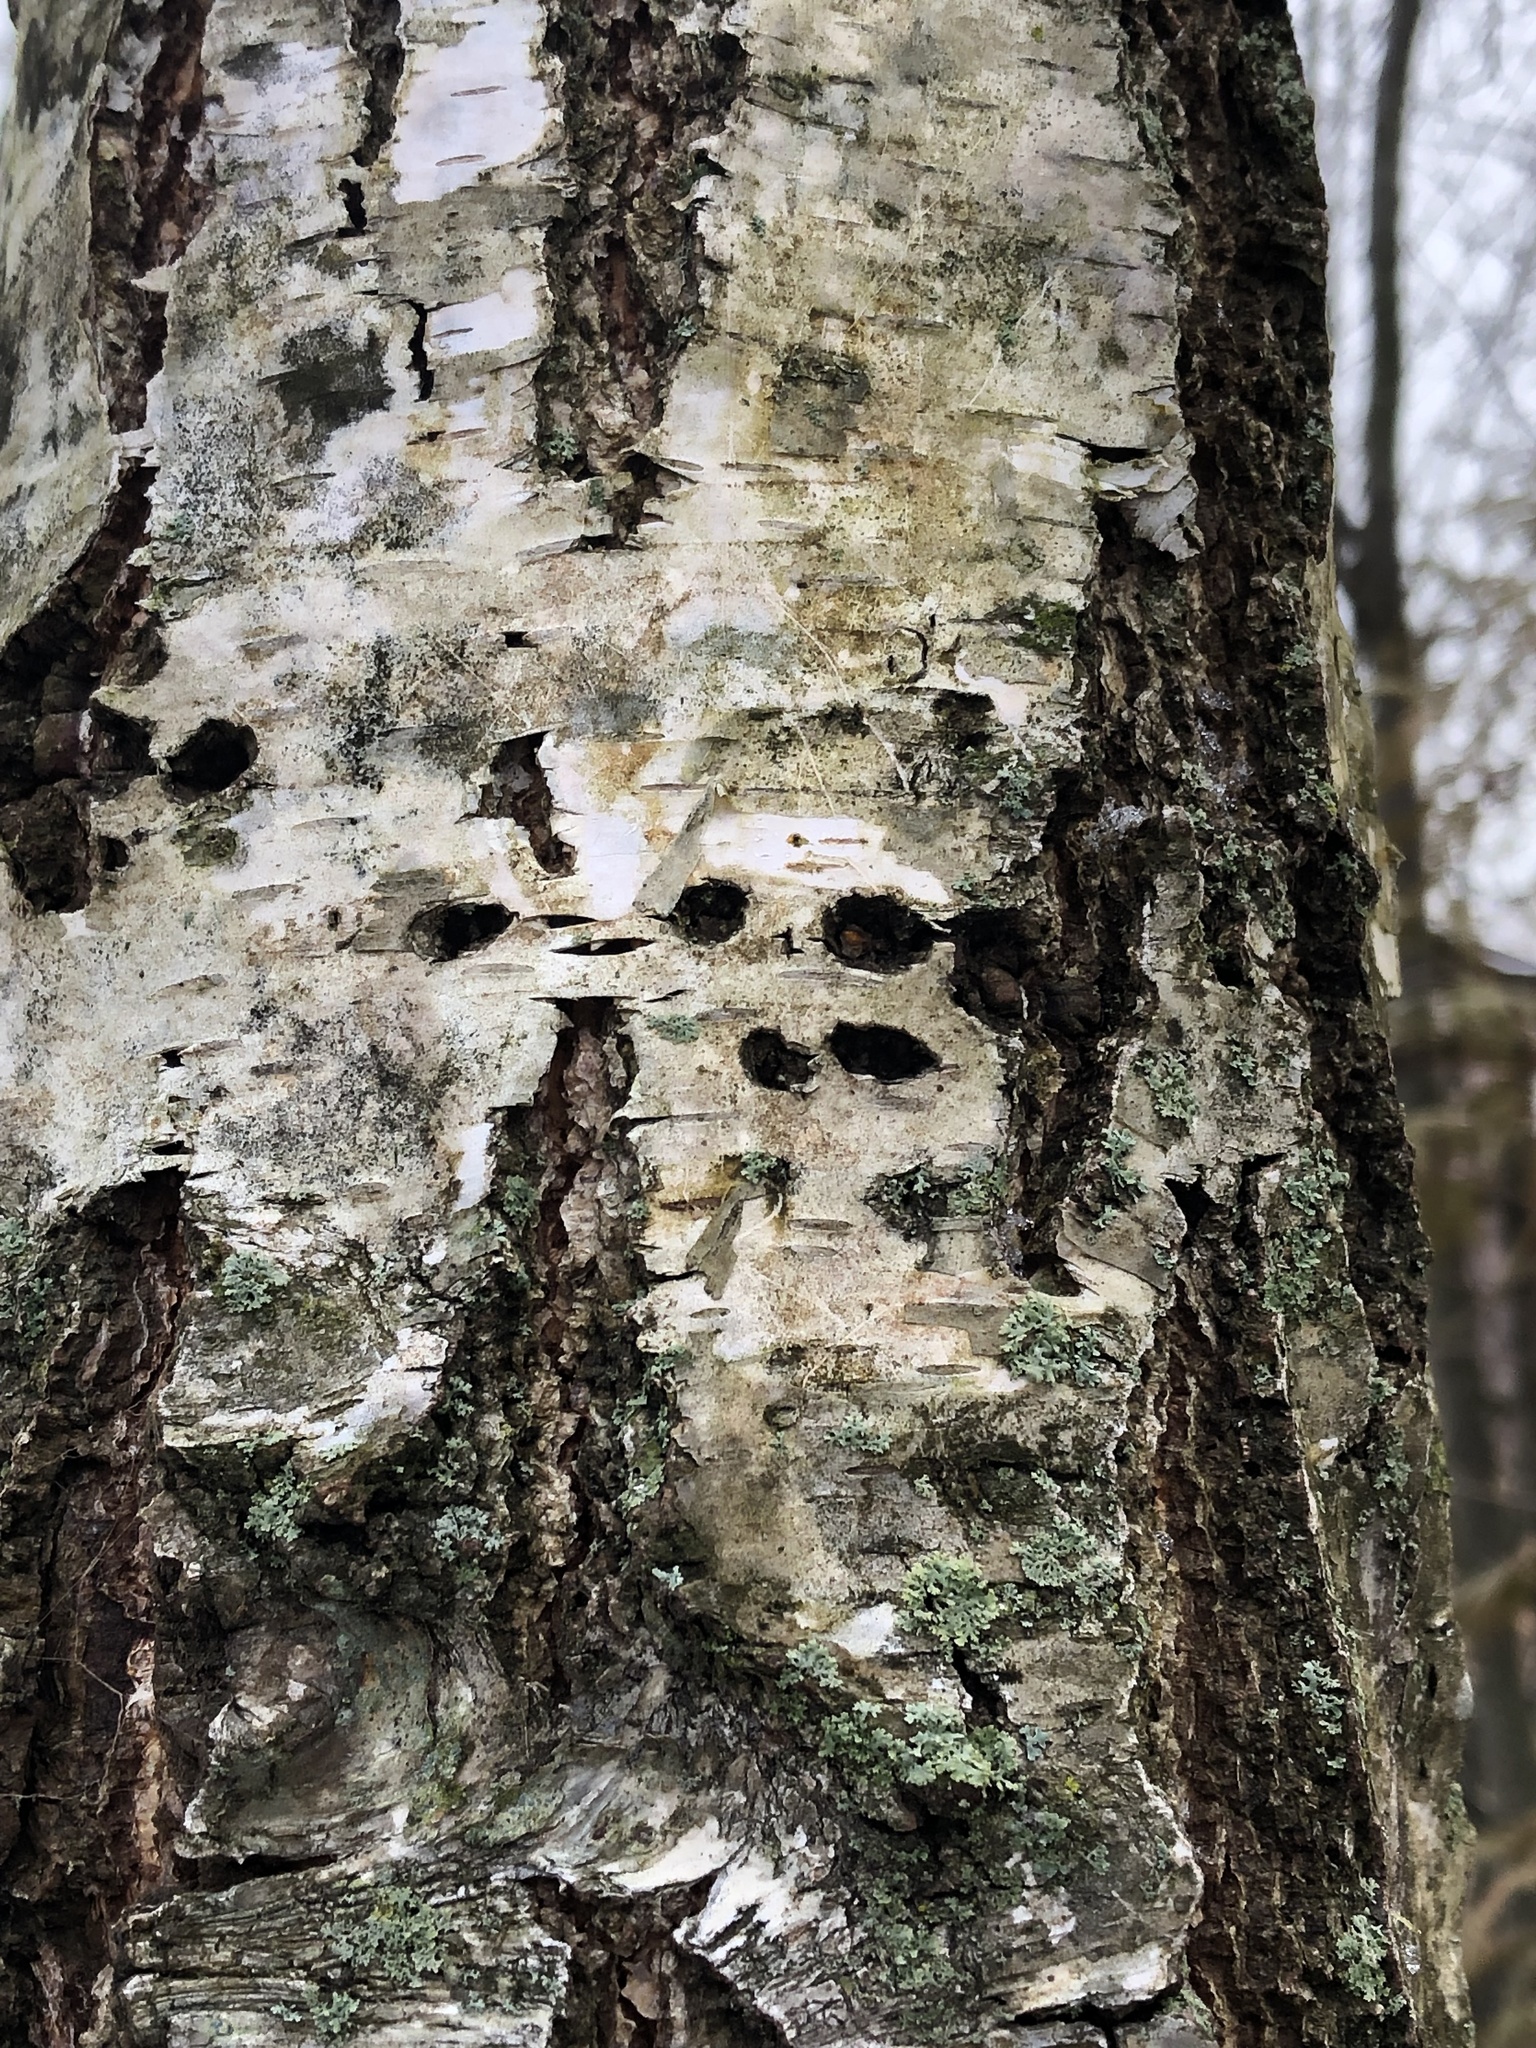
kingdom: Animalia
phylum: Chordata
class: Aves
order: Piciformes
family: Picidae
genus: Sphyrapicus
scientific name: Sphyrapicus varius
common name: Yellow-bellied sapsucker
